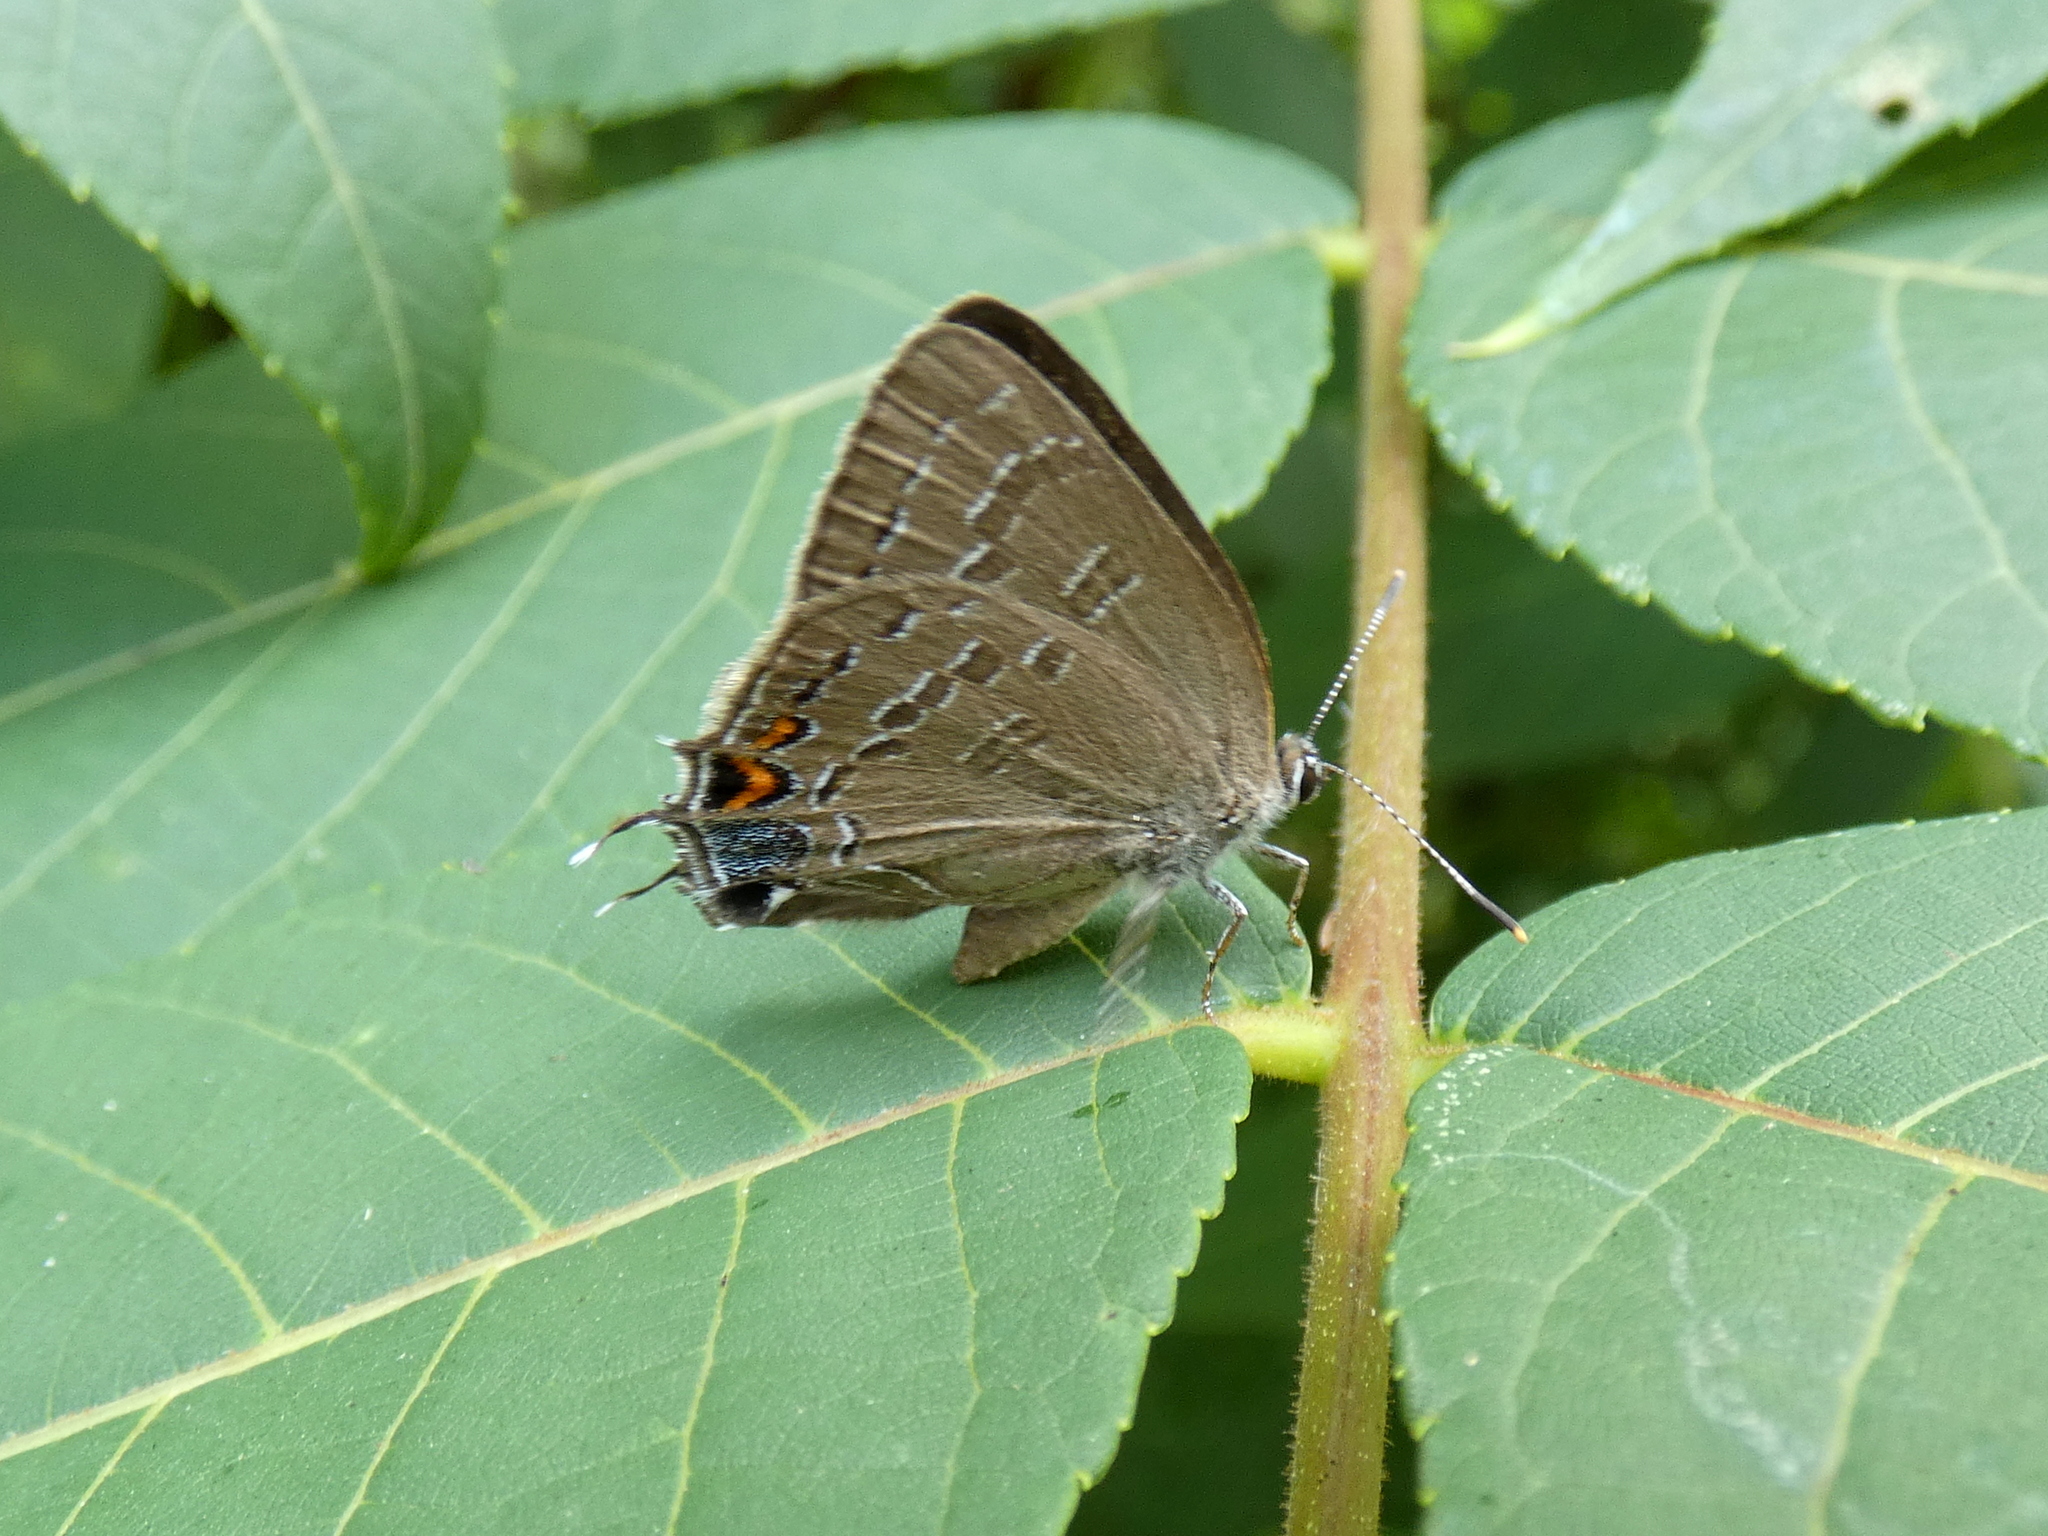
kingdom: Animalia
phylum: Arthropoda
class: Insecta
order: Lepidoptera
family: Lycaenidae
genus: Satyrium
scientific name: Satyrium calanus
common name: Banded hairstreak
